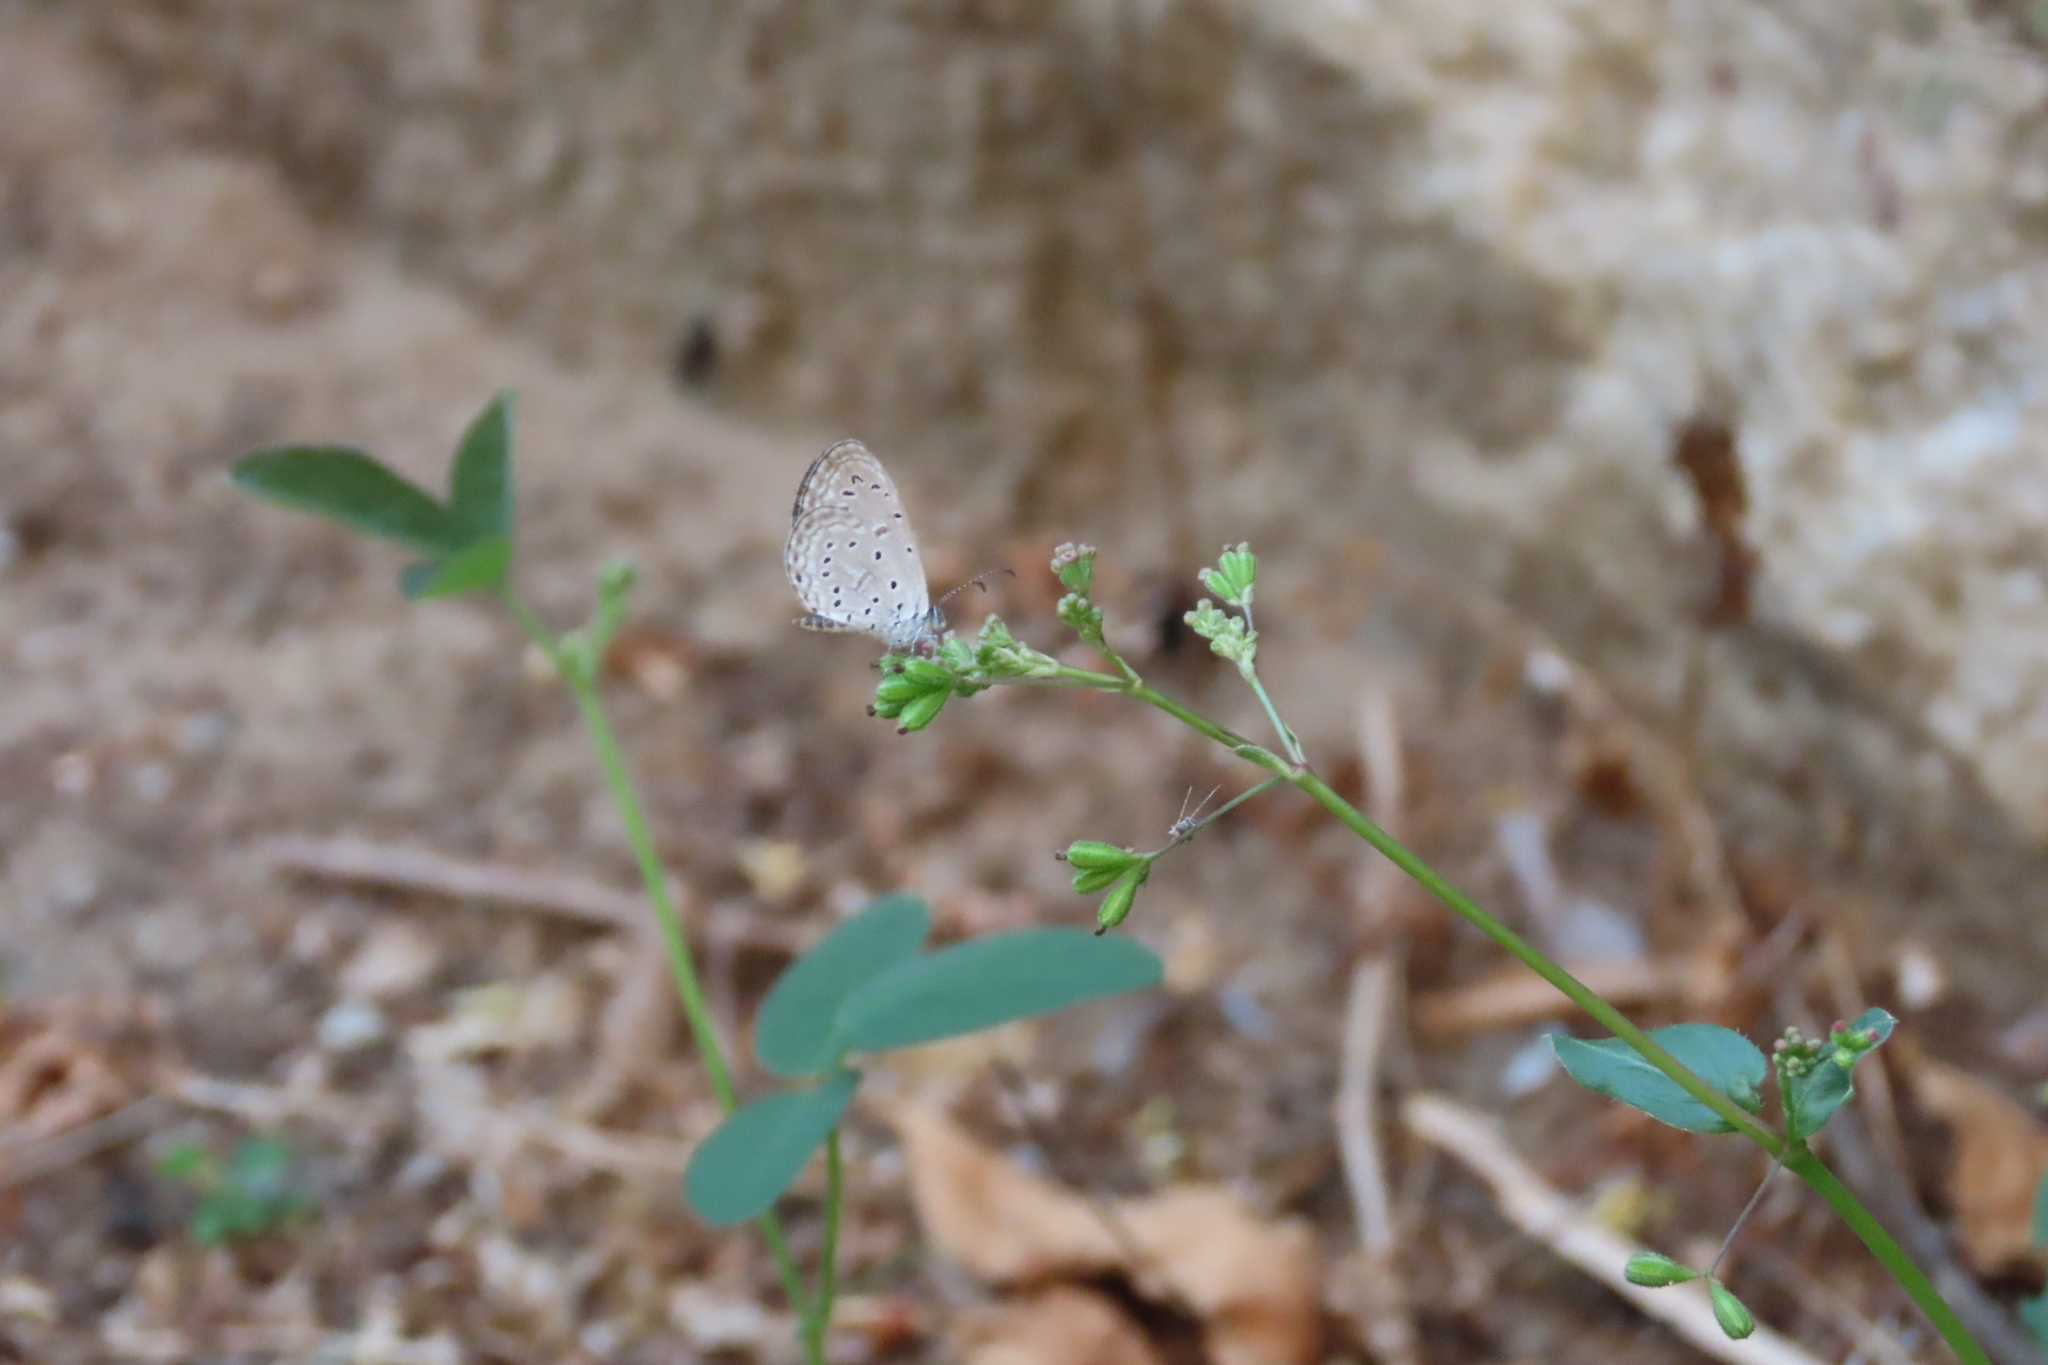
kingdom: Animalia
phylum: Arthropoda
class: Insecta
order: Lepidoptera
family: Lycaenidae
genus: Zizula
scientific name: Zizula hylax
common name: Gaika blue
